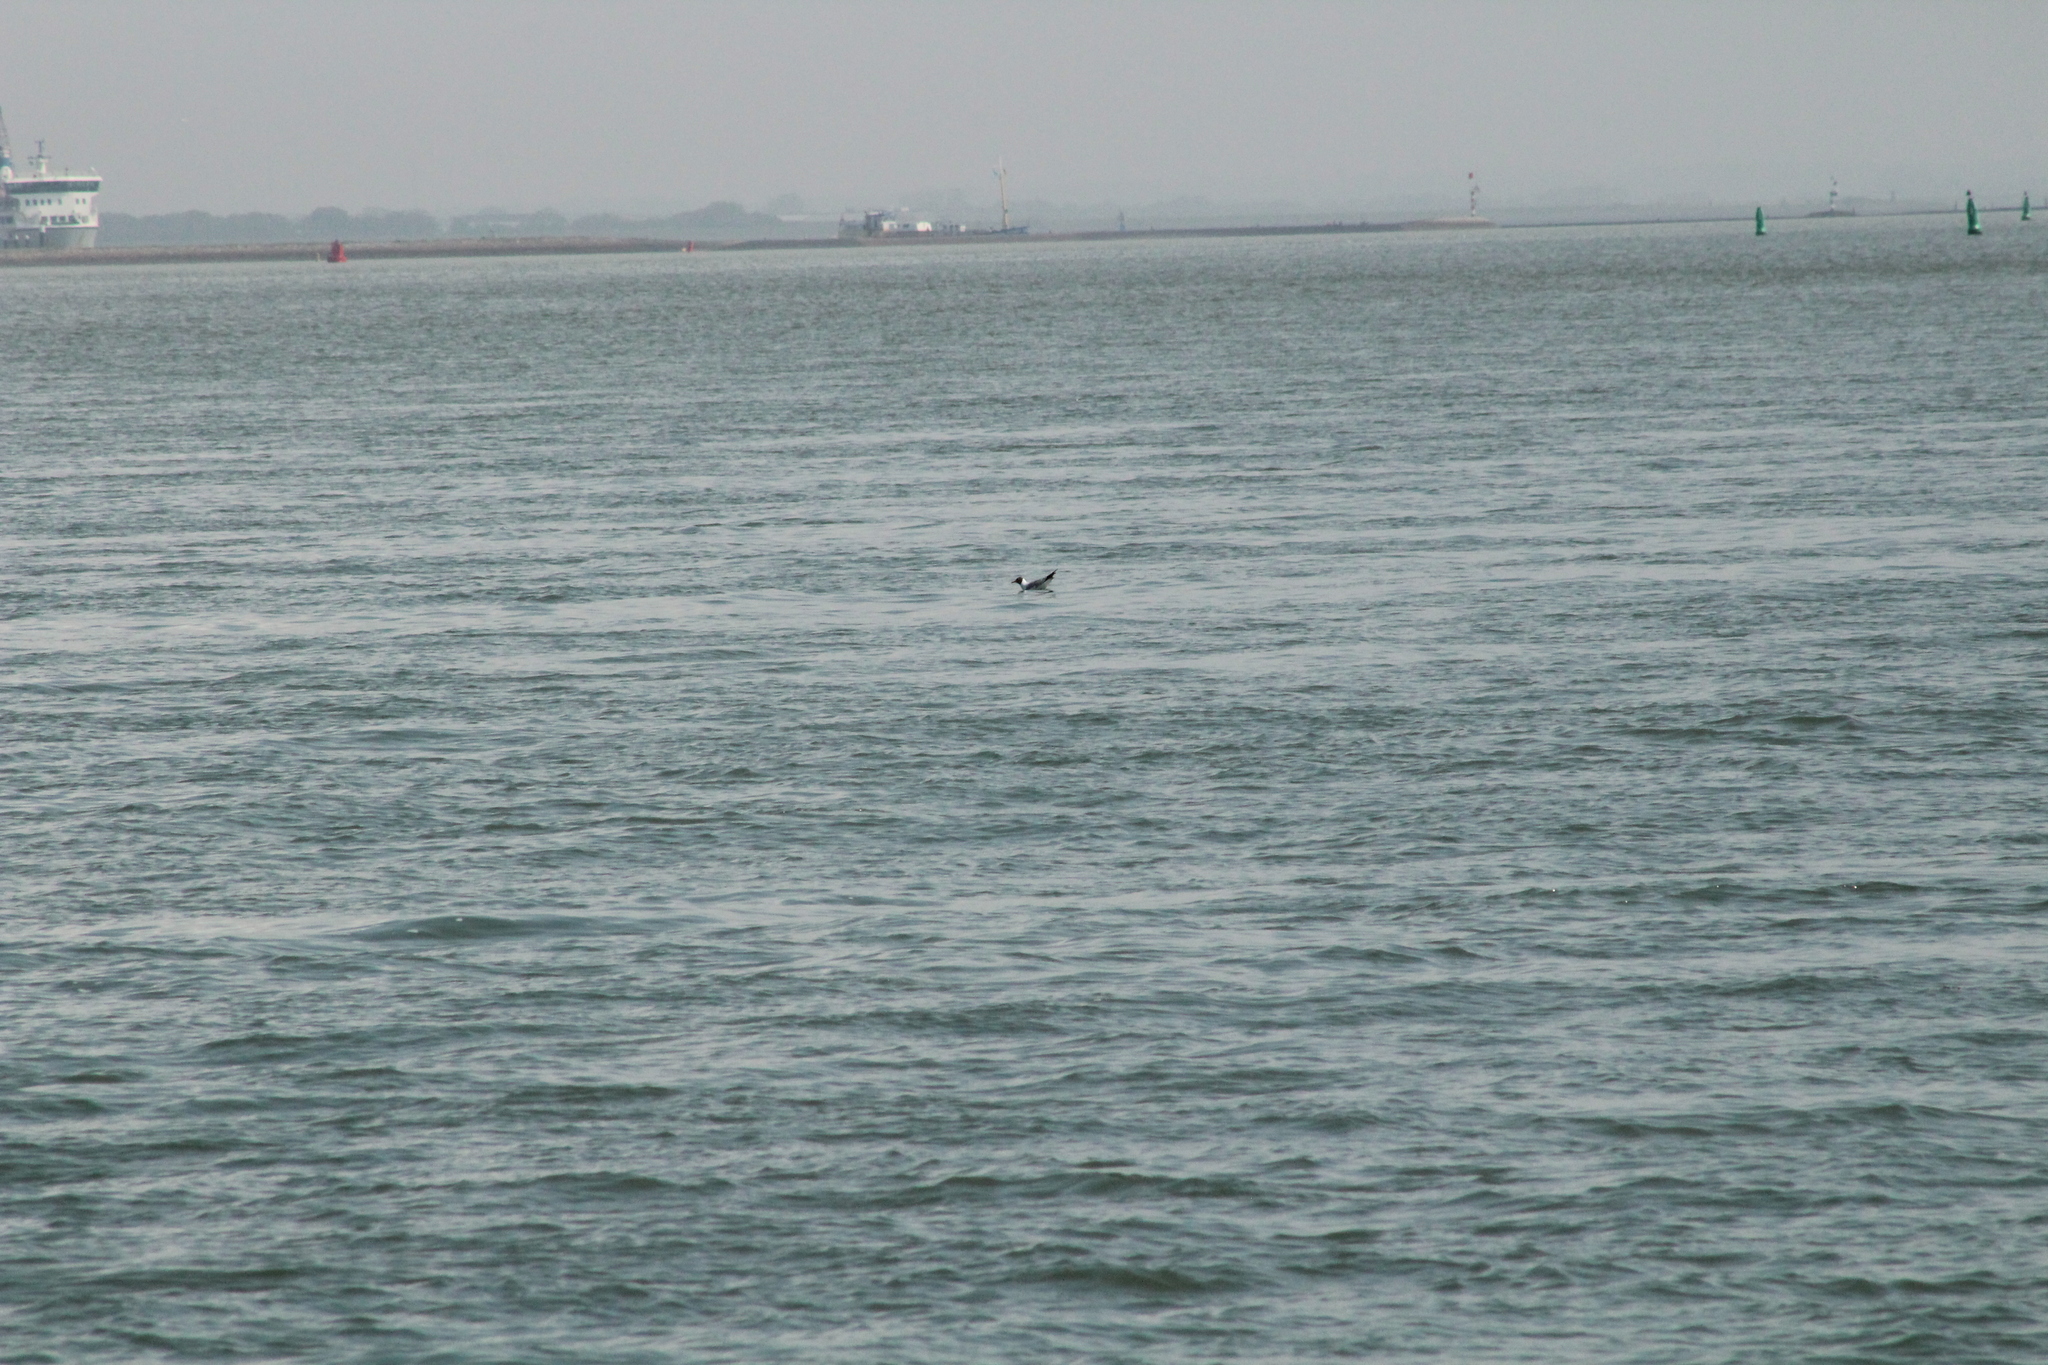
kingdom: Animalia
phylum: Chordata
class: Aves
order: Charadriiformes
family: Laridae
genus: Chroicocephalus
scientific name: Chroicocephalus ridibundus
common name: Black-headed gull
